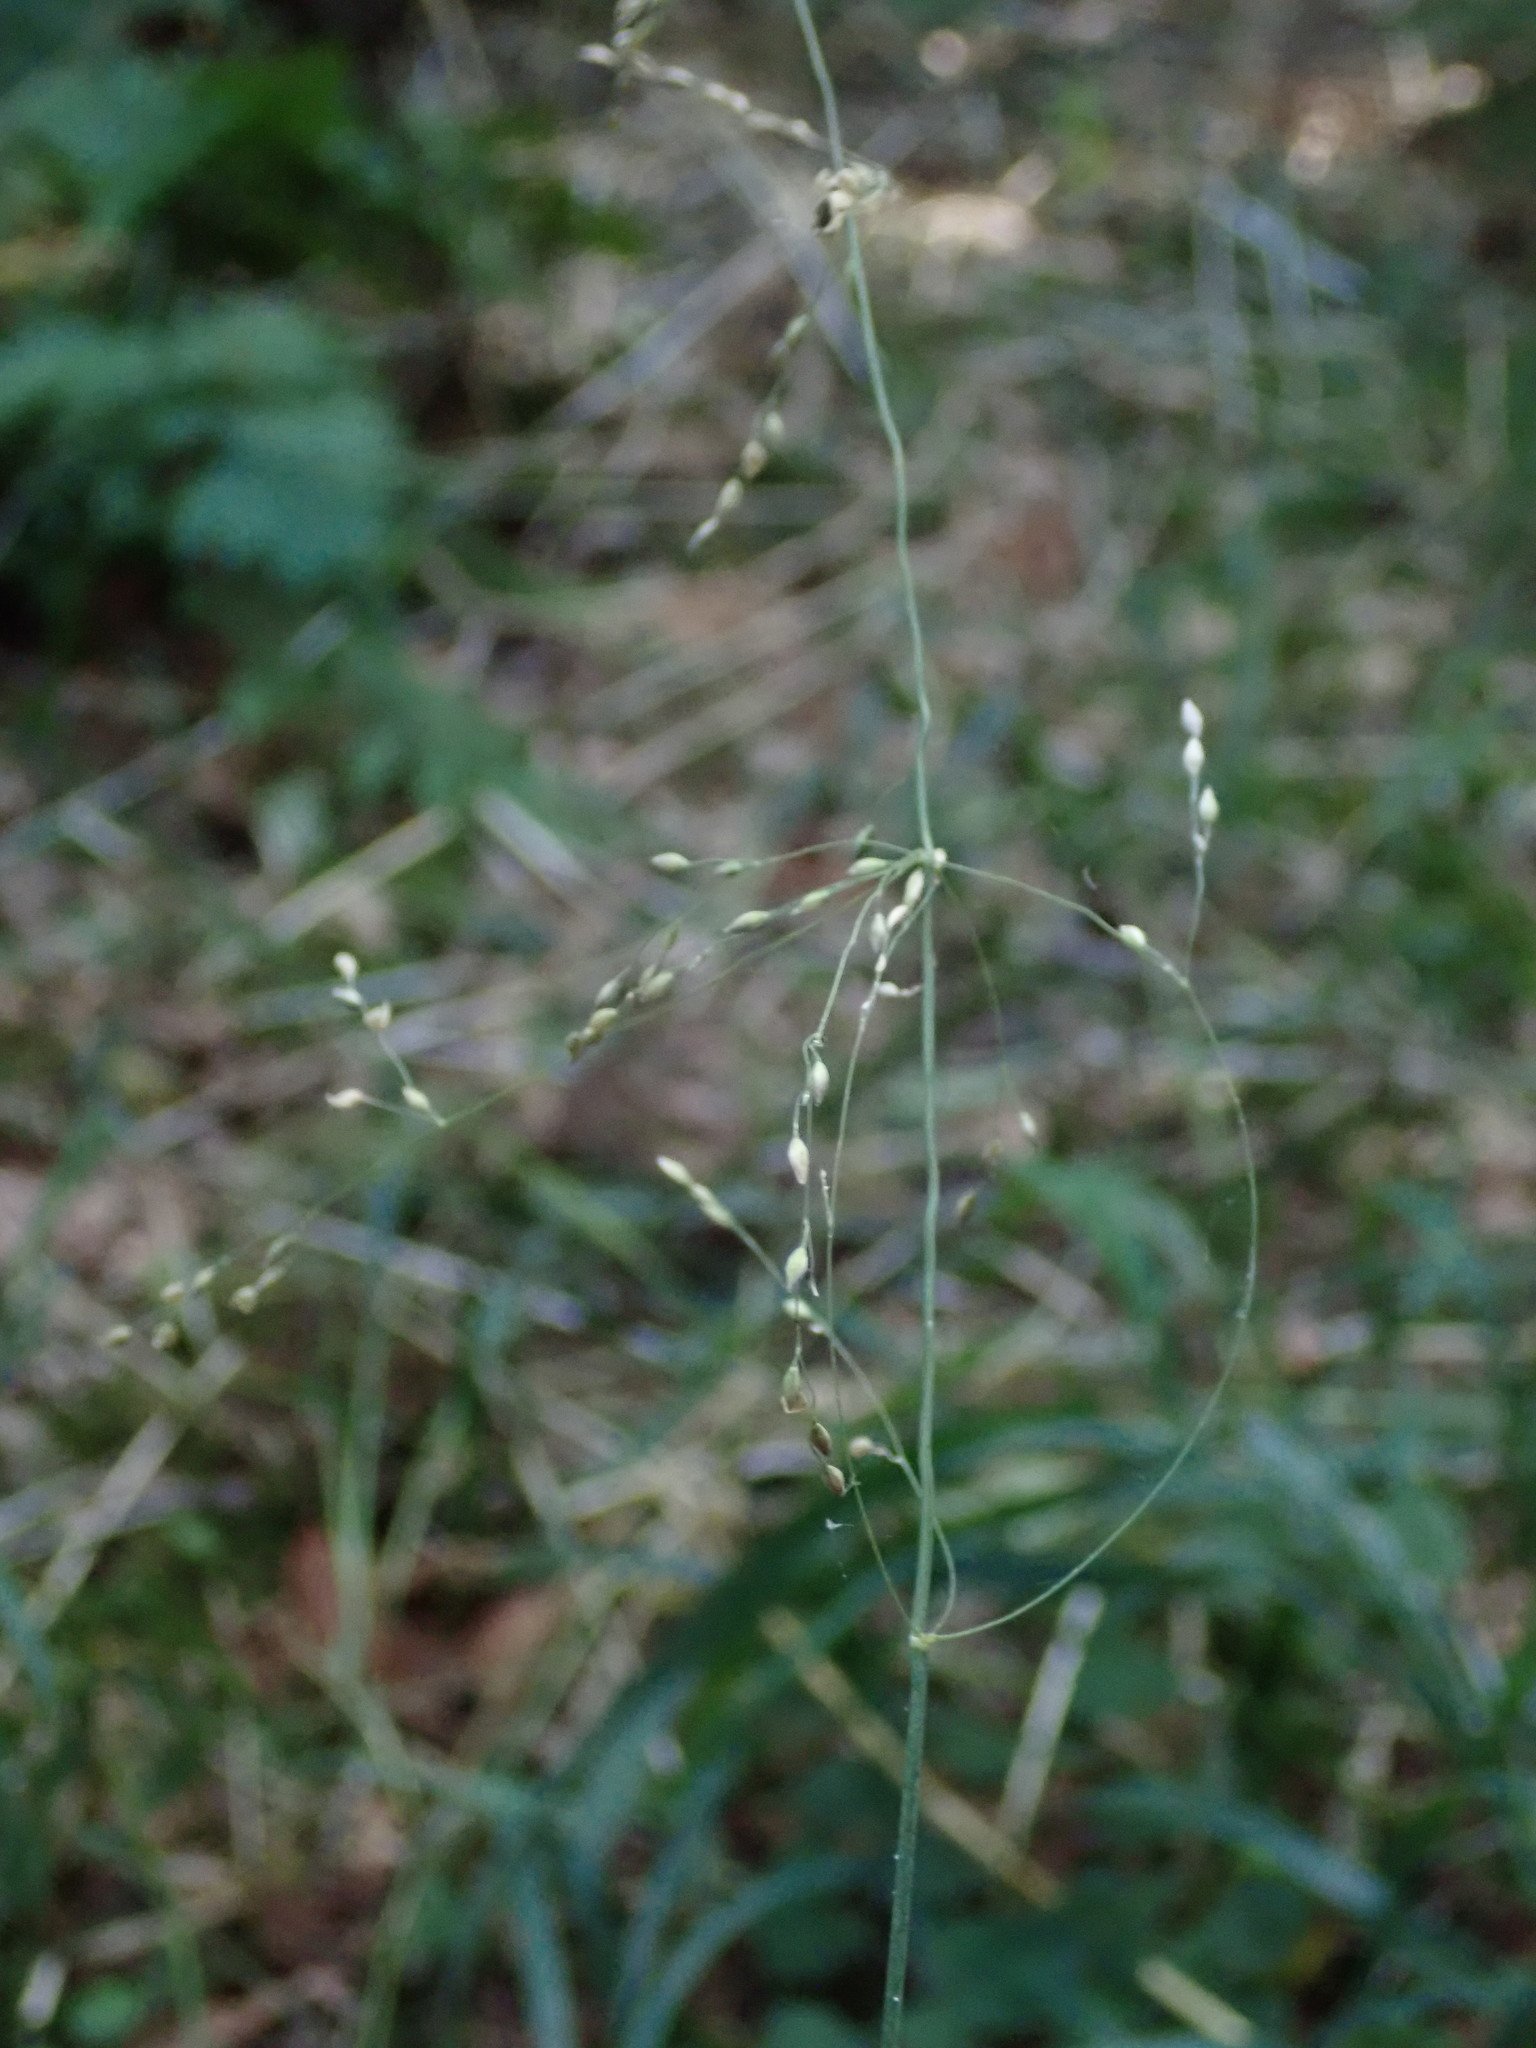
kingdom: Plantae
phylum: Tracheophyta
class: Liliopsida
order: Poales
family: Poaceae
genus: Milium
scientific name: Milium effusum
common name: Wood millet
